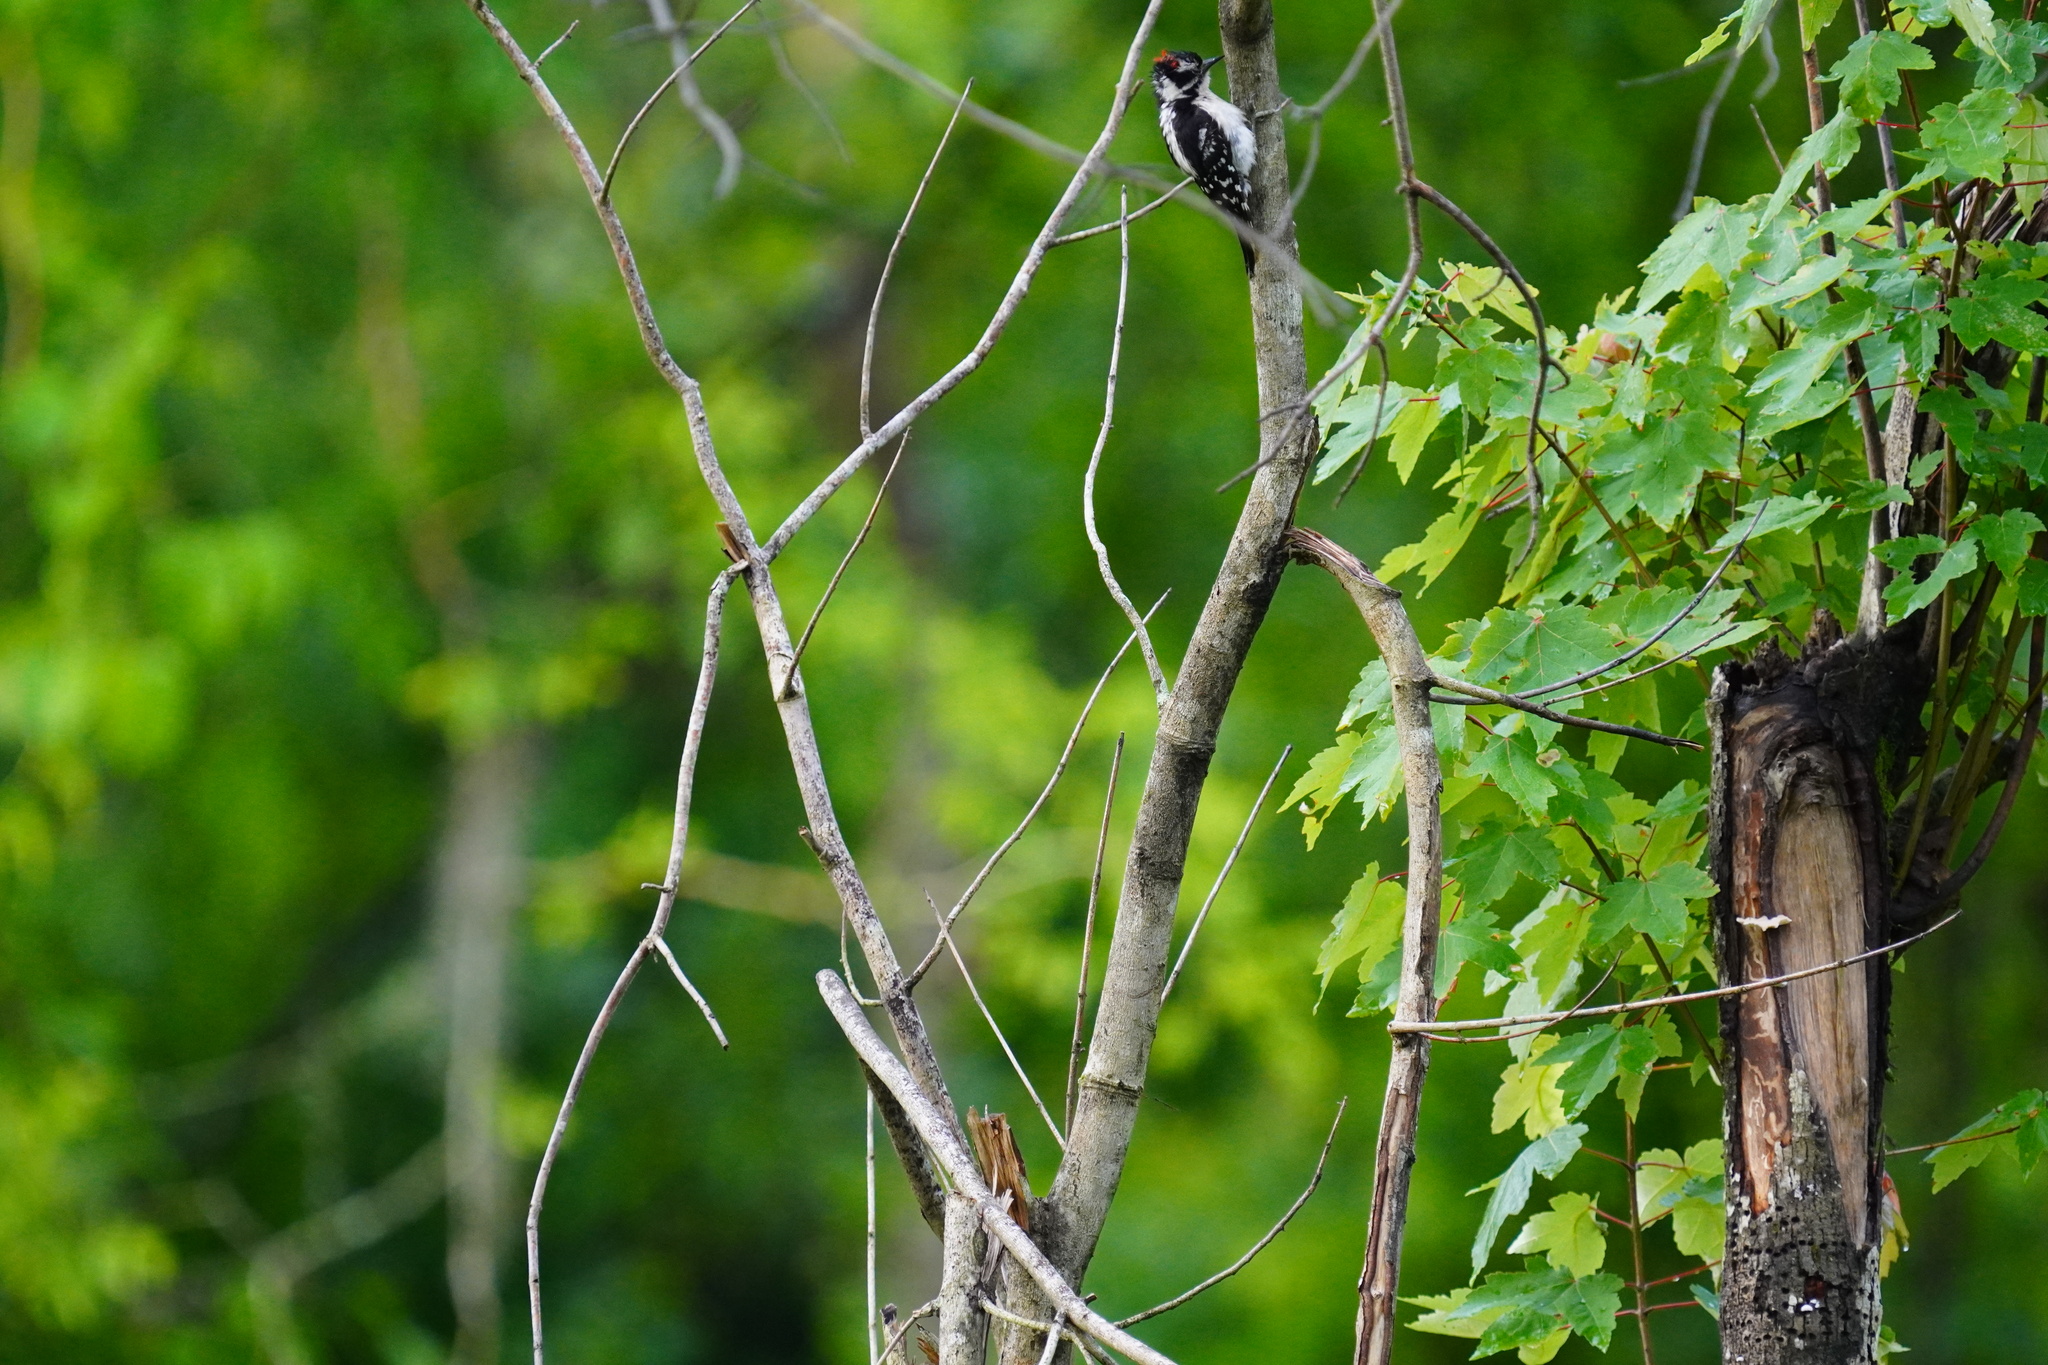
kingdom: Animalia
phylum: Chordata
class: Aves
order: Piciformes
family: Picidae
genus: Dryobates
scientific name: Dryobates pubescens
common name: Downy woodpecker
